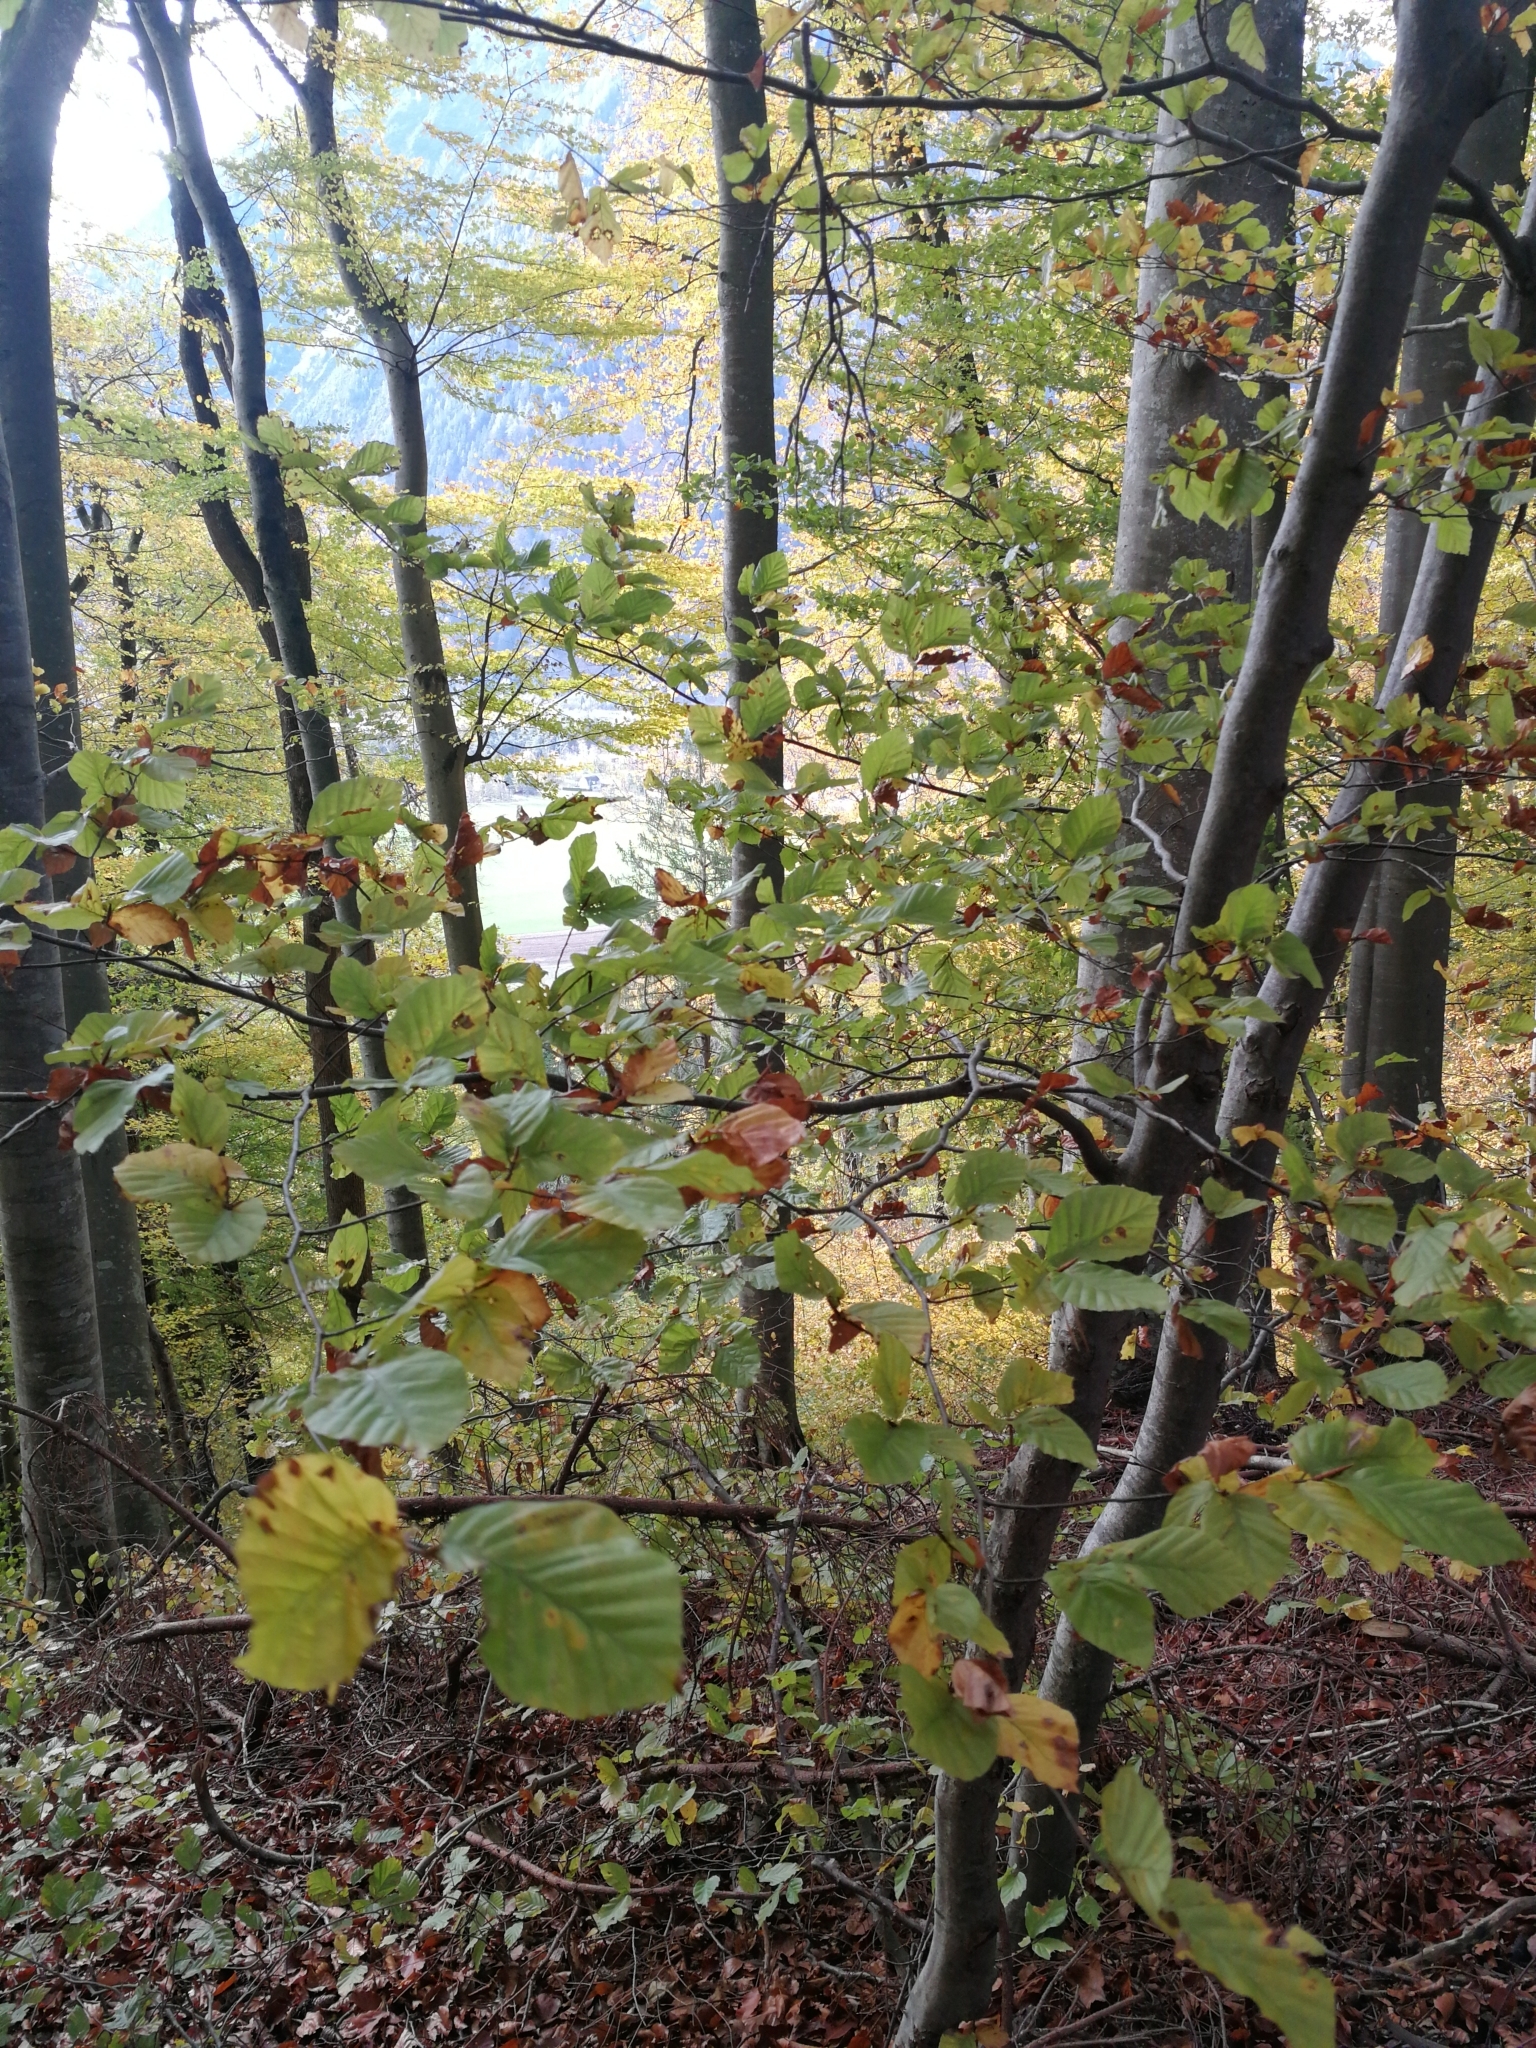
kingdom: Plantae
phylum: Tracheophyta
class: Magnoliopsida
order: Fagales
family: Fagaceae
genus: Fagus
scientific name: Fagus sylvatica
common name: Beech
